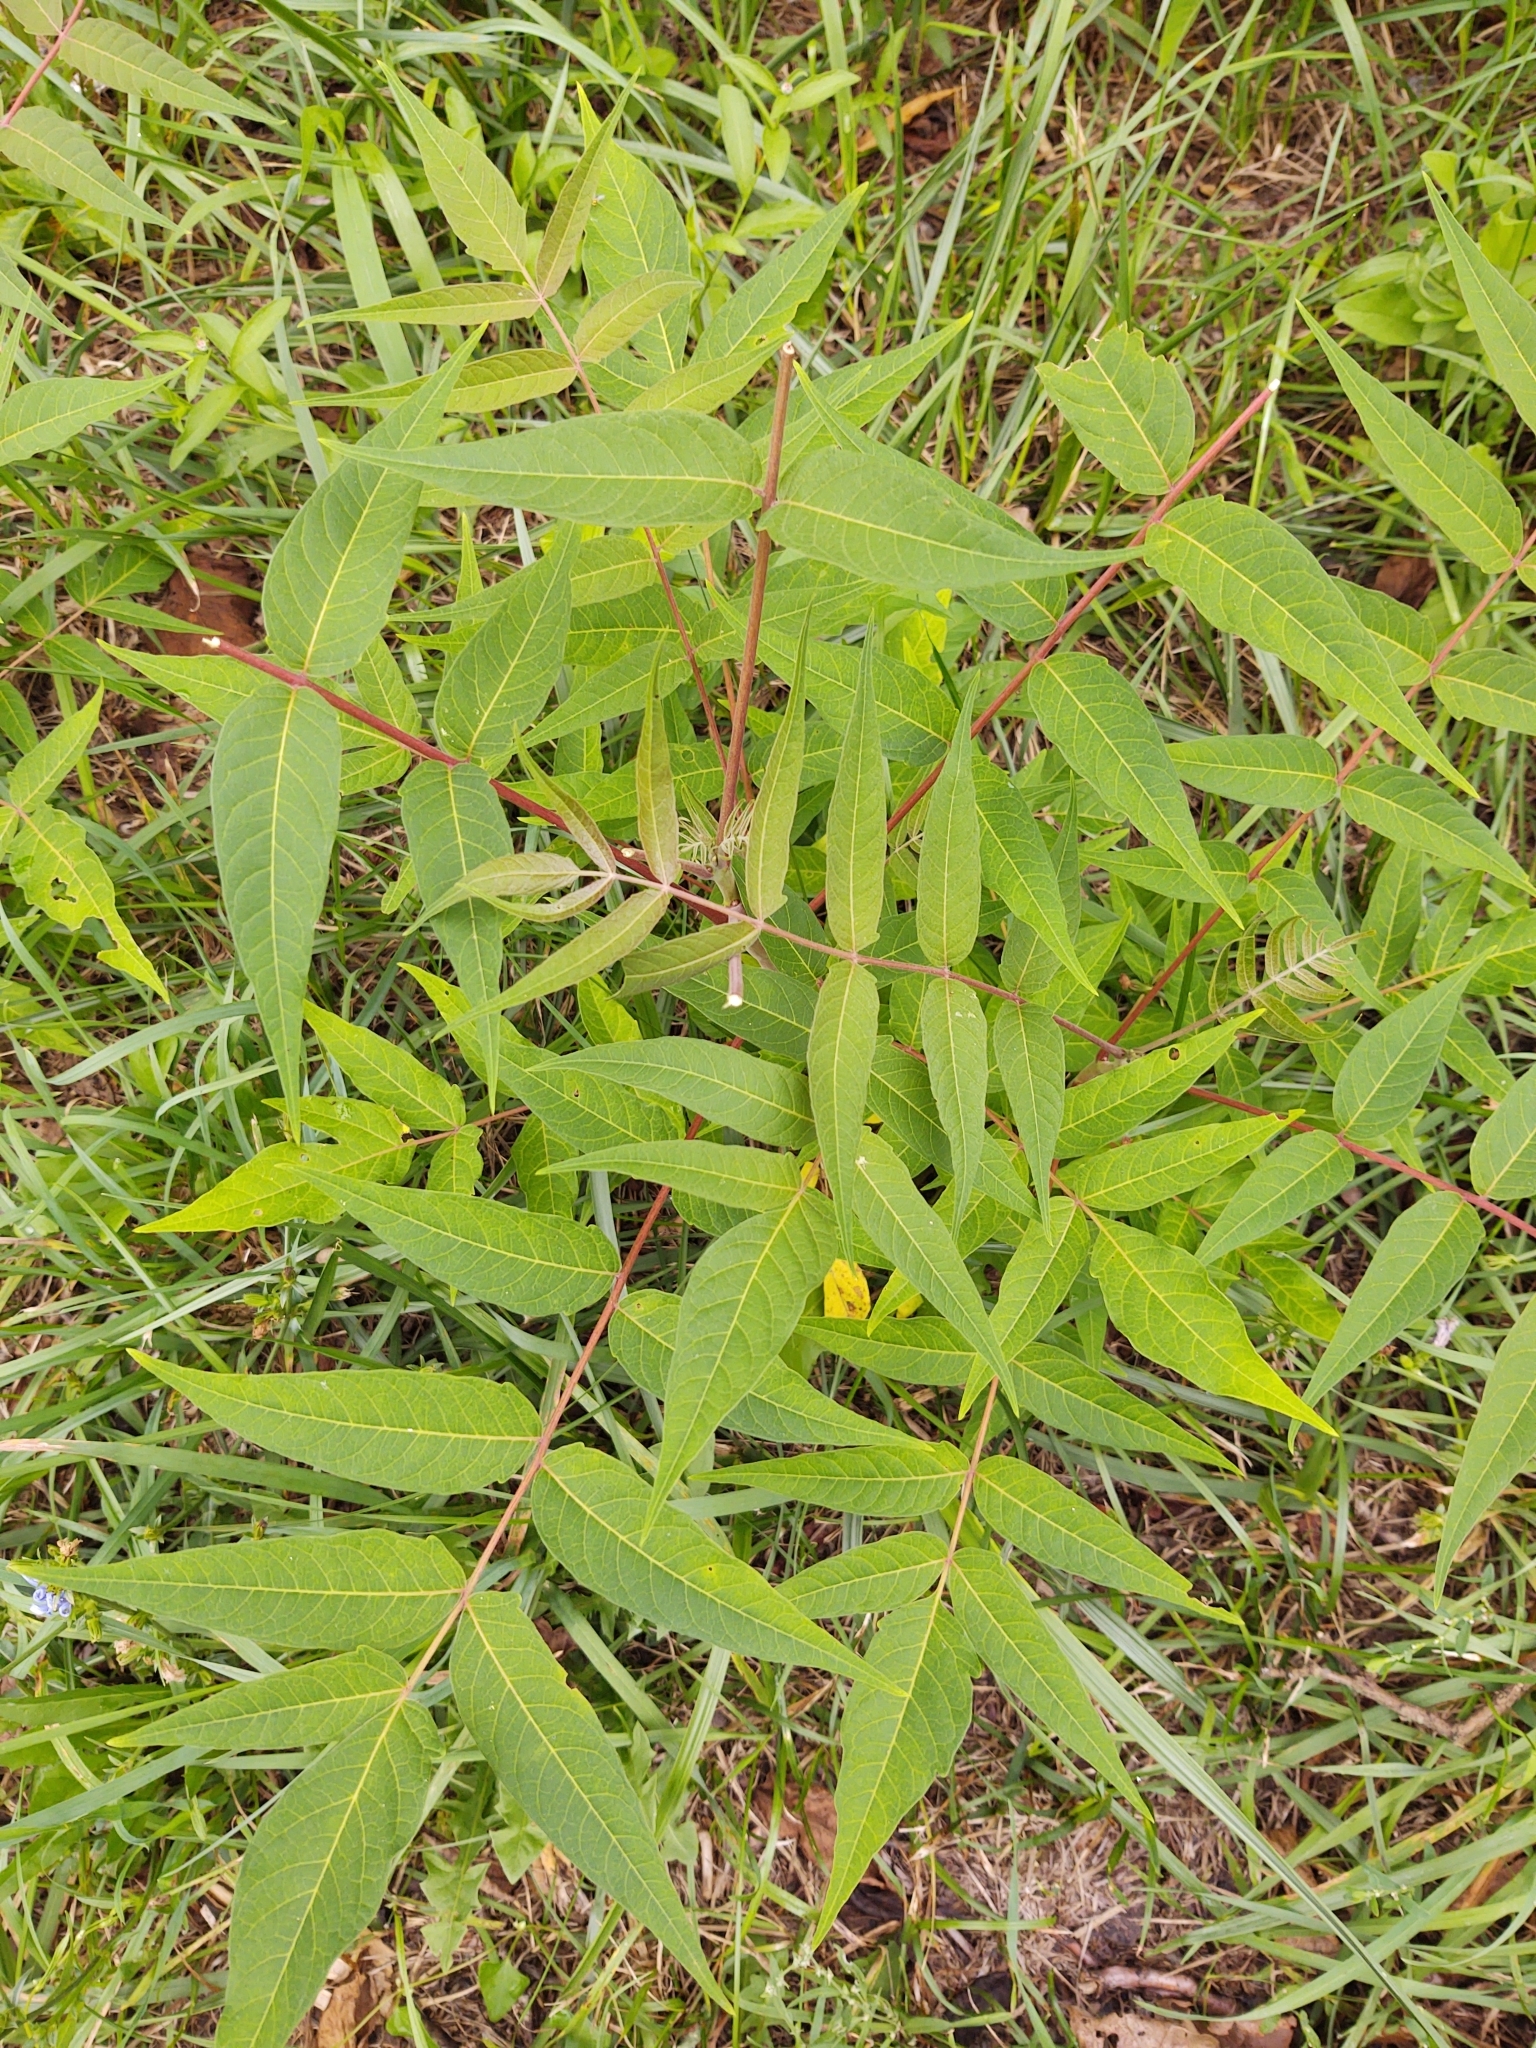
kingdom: Plantae
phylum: Tracheophyta
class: Magnoliopsida
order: Sapindales
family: Simaroubaceae
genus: Ailanthus
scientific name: Ailanthus altissima
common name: Tree-of-heaven
